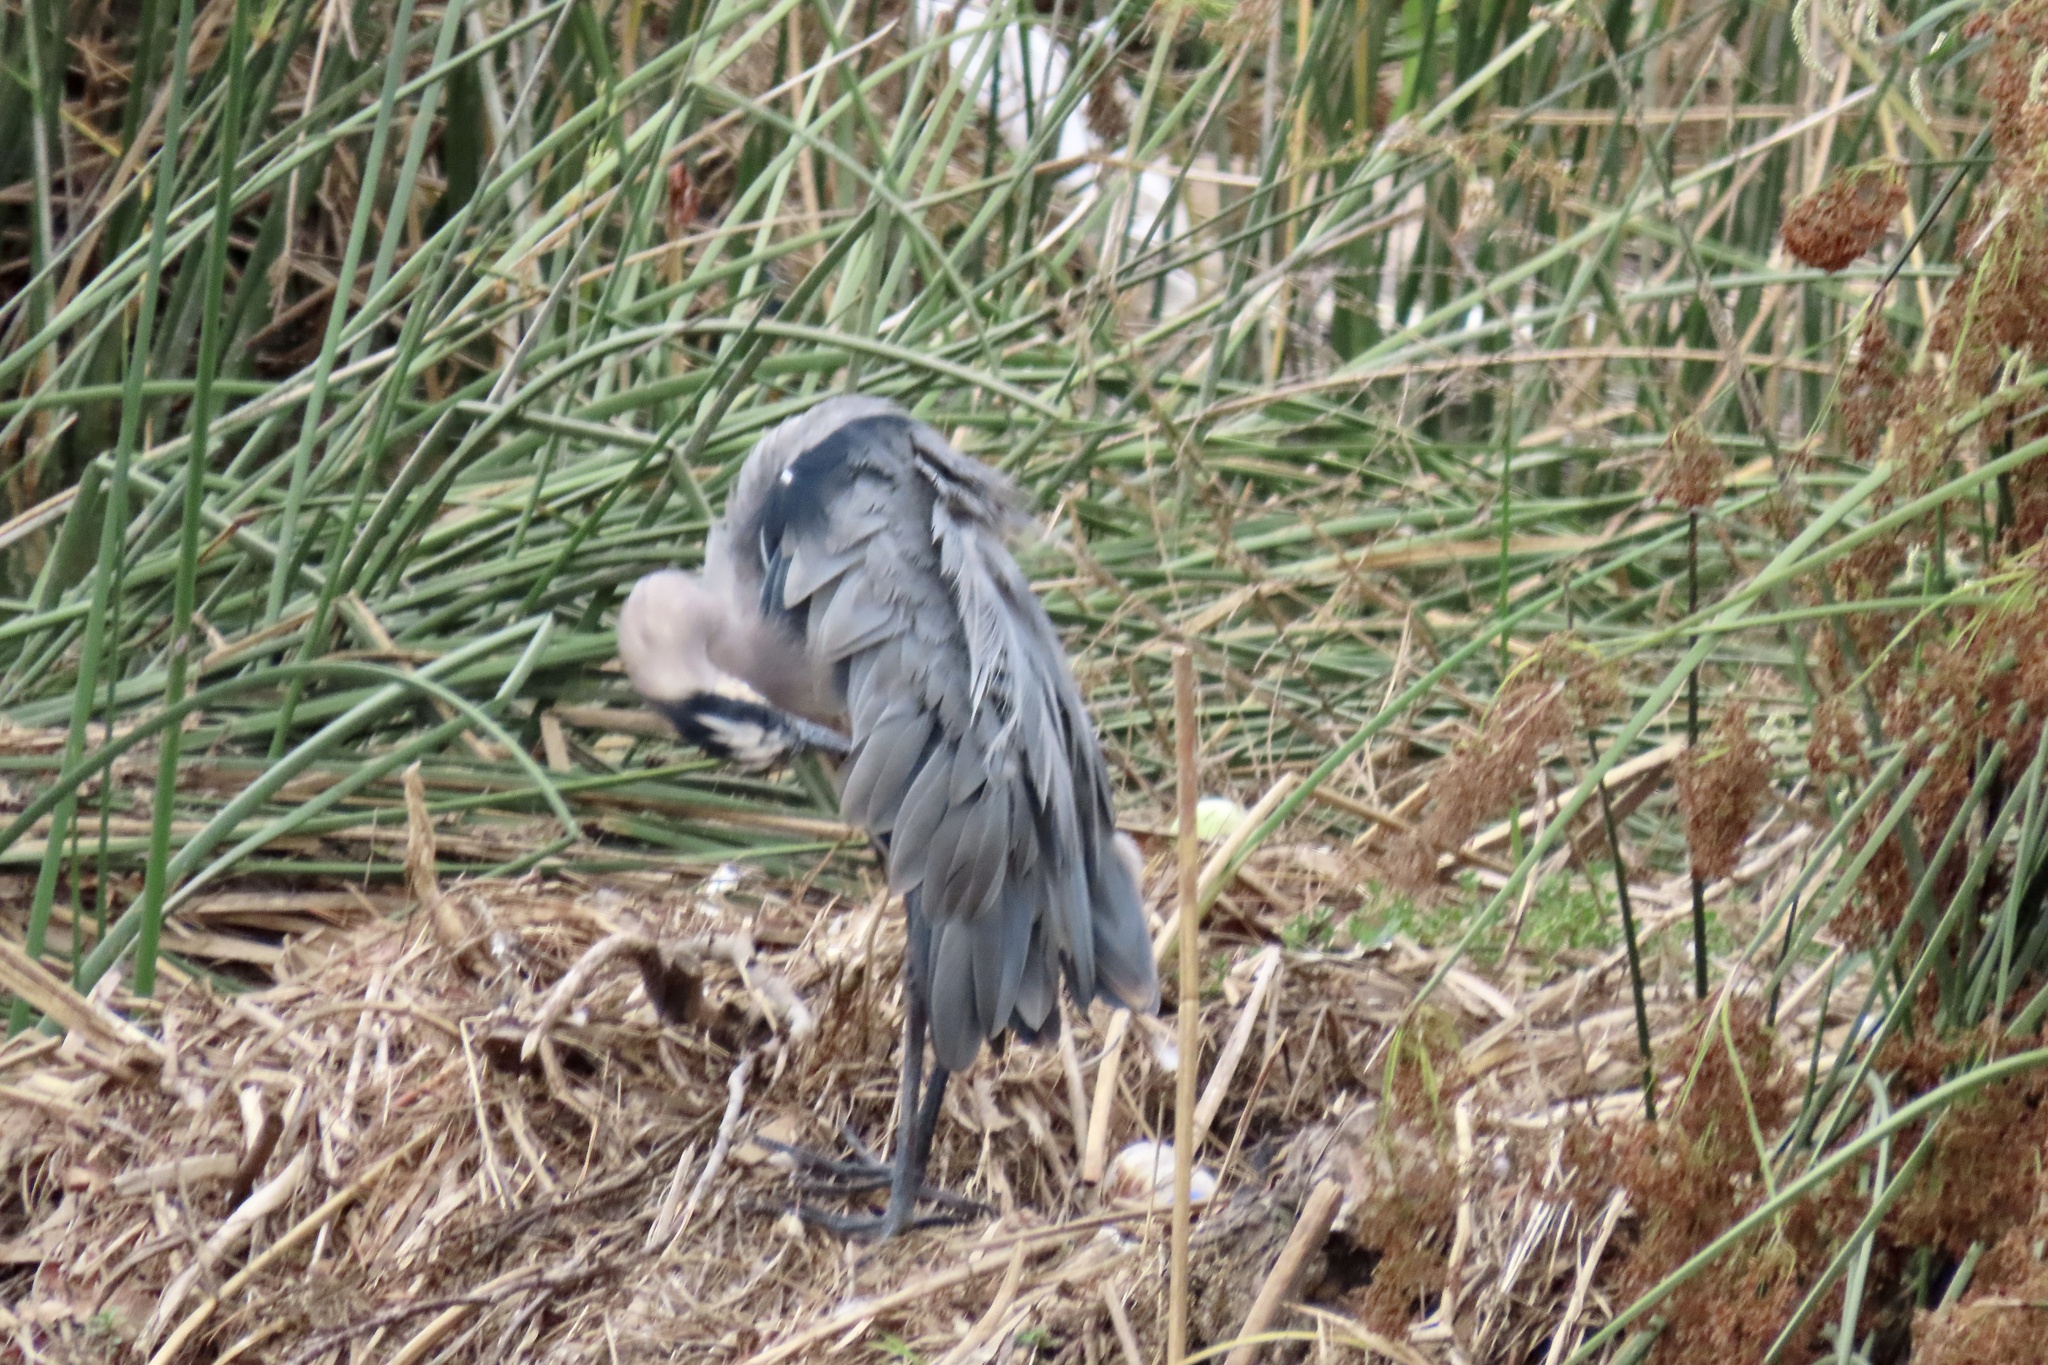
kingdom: Animalia
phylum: Chordata
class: Aves
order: Pelecaniformes
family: Ardeidae
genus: Ardea
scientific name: Ardea herodias
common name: Great blue heron
